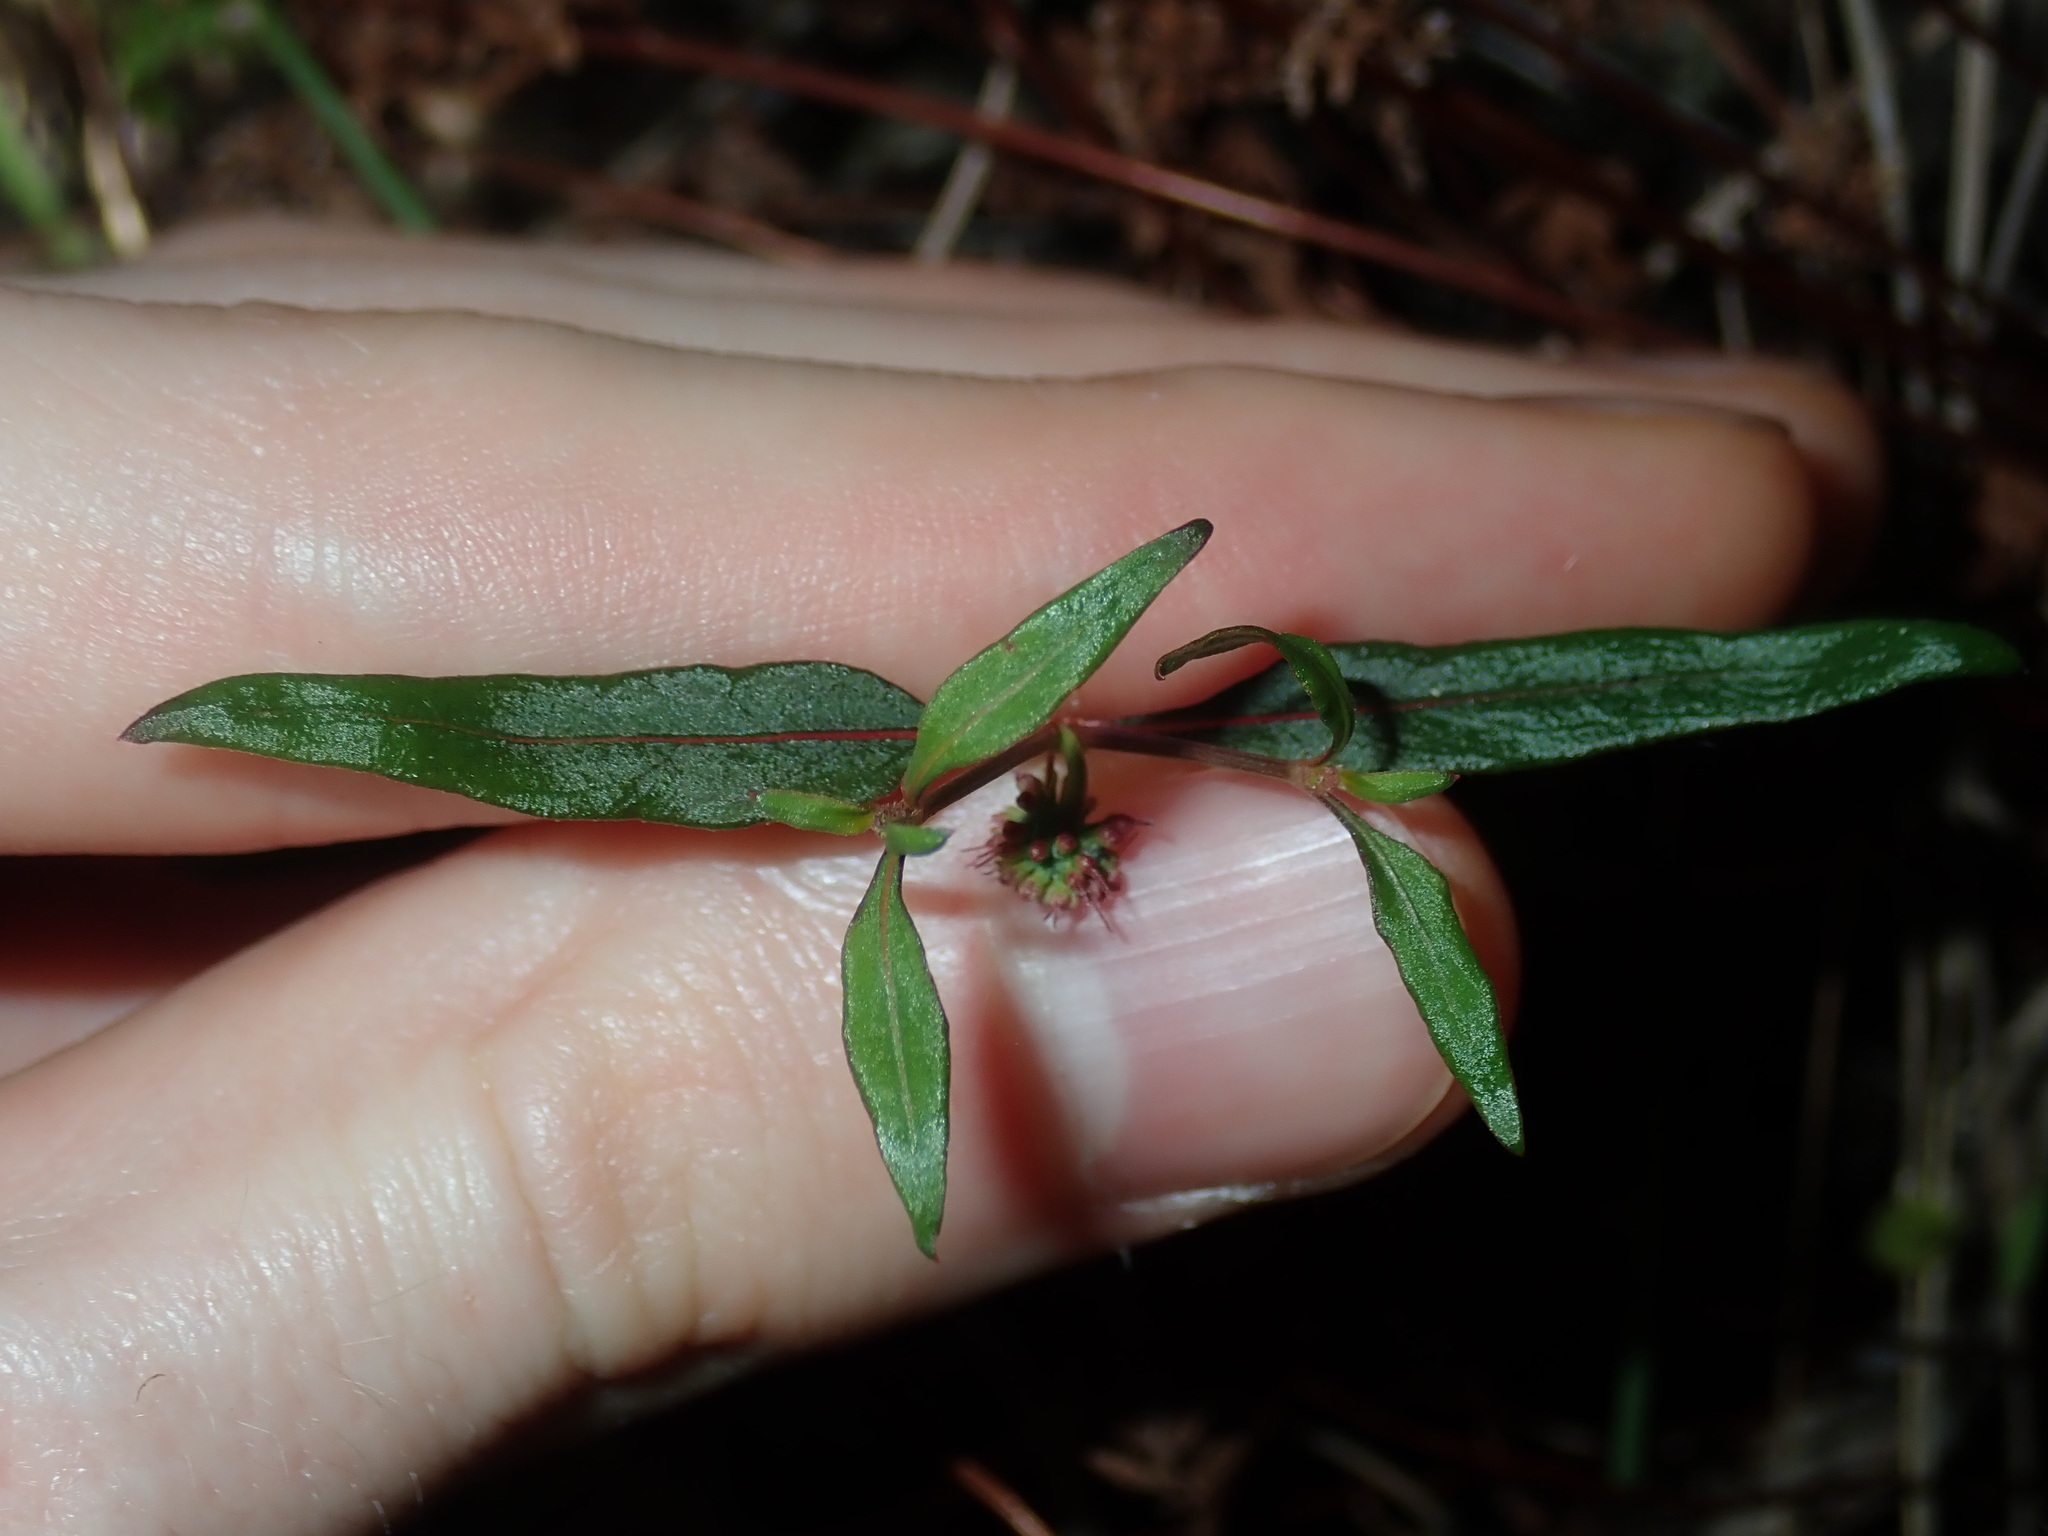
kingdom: Plantae
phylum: Tracheophyta
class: Magnoliopsida
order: Gentianales
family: Rubiaceae
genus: Opercularia
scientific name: Opercularia diphylla
